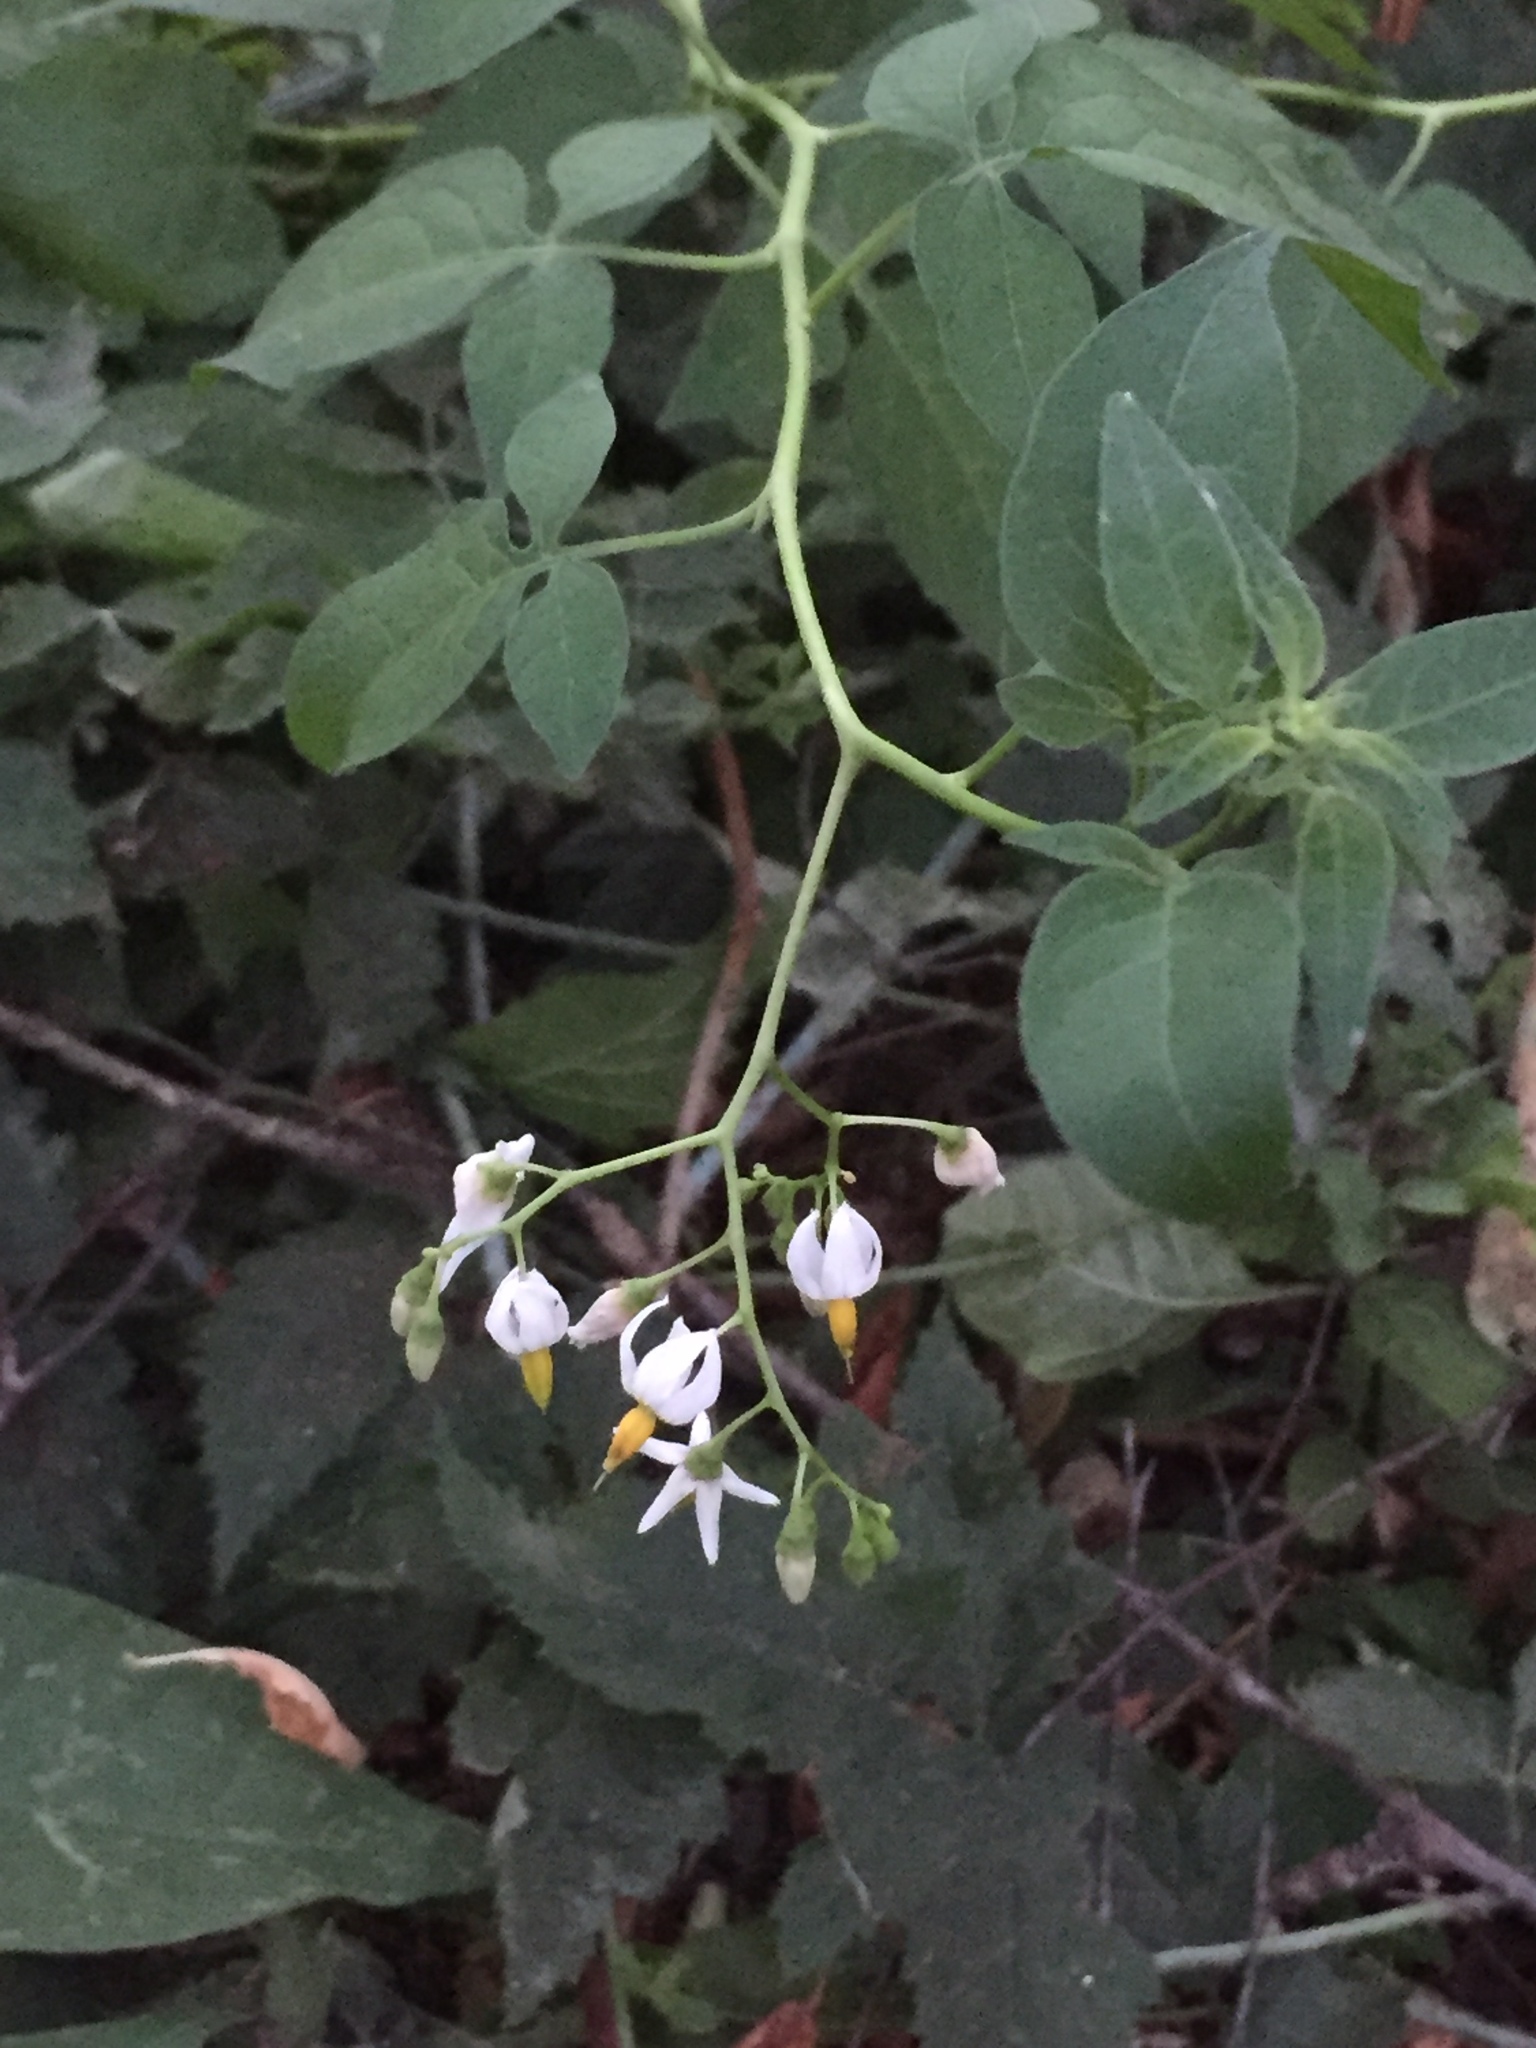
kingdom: Plantae
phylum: Tracheophyta
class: Magnoliopsida
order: Solanales
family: Solanaceae
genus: Solanum
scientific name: Solanum dulcamara
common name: Climbing nightshade
